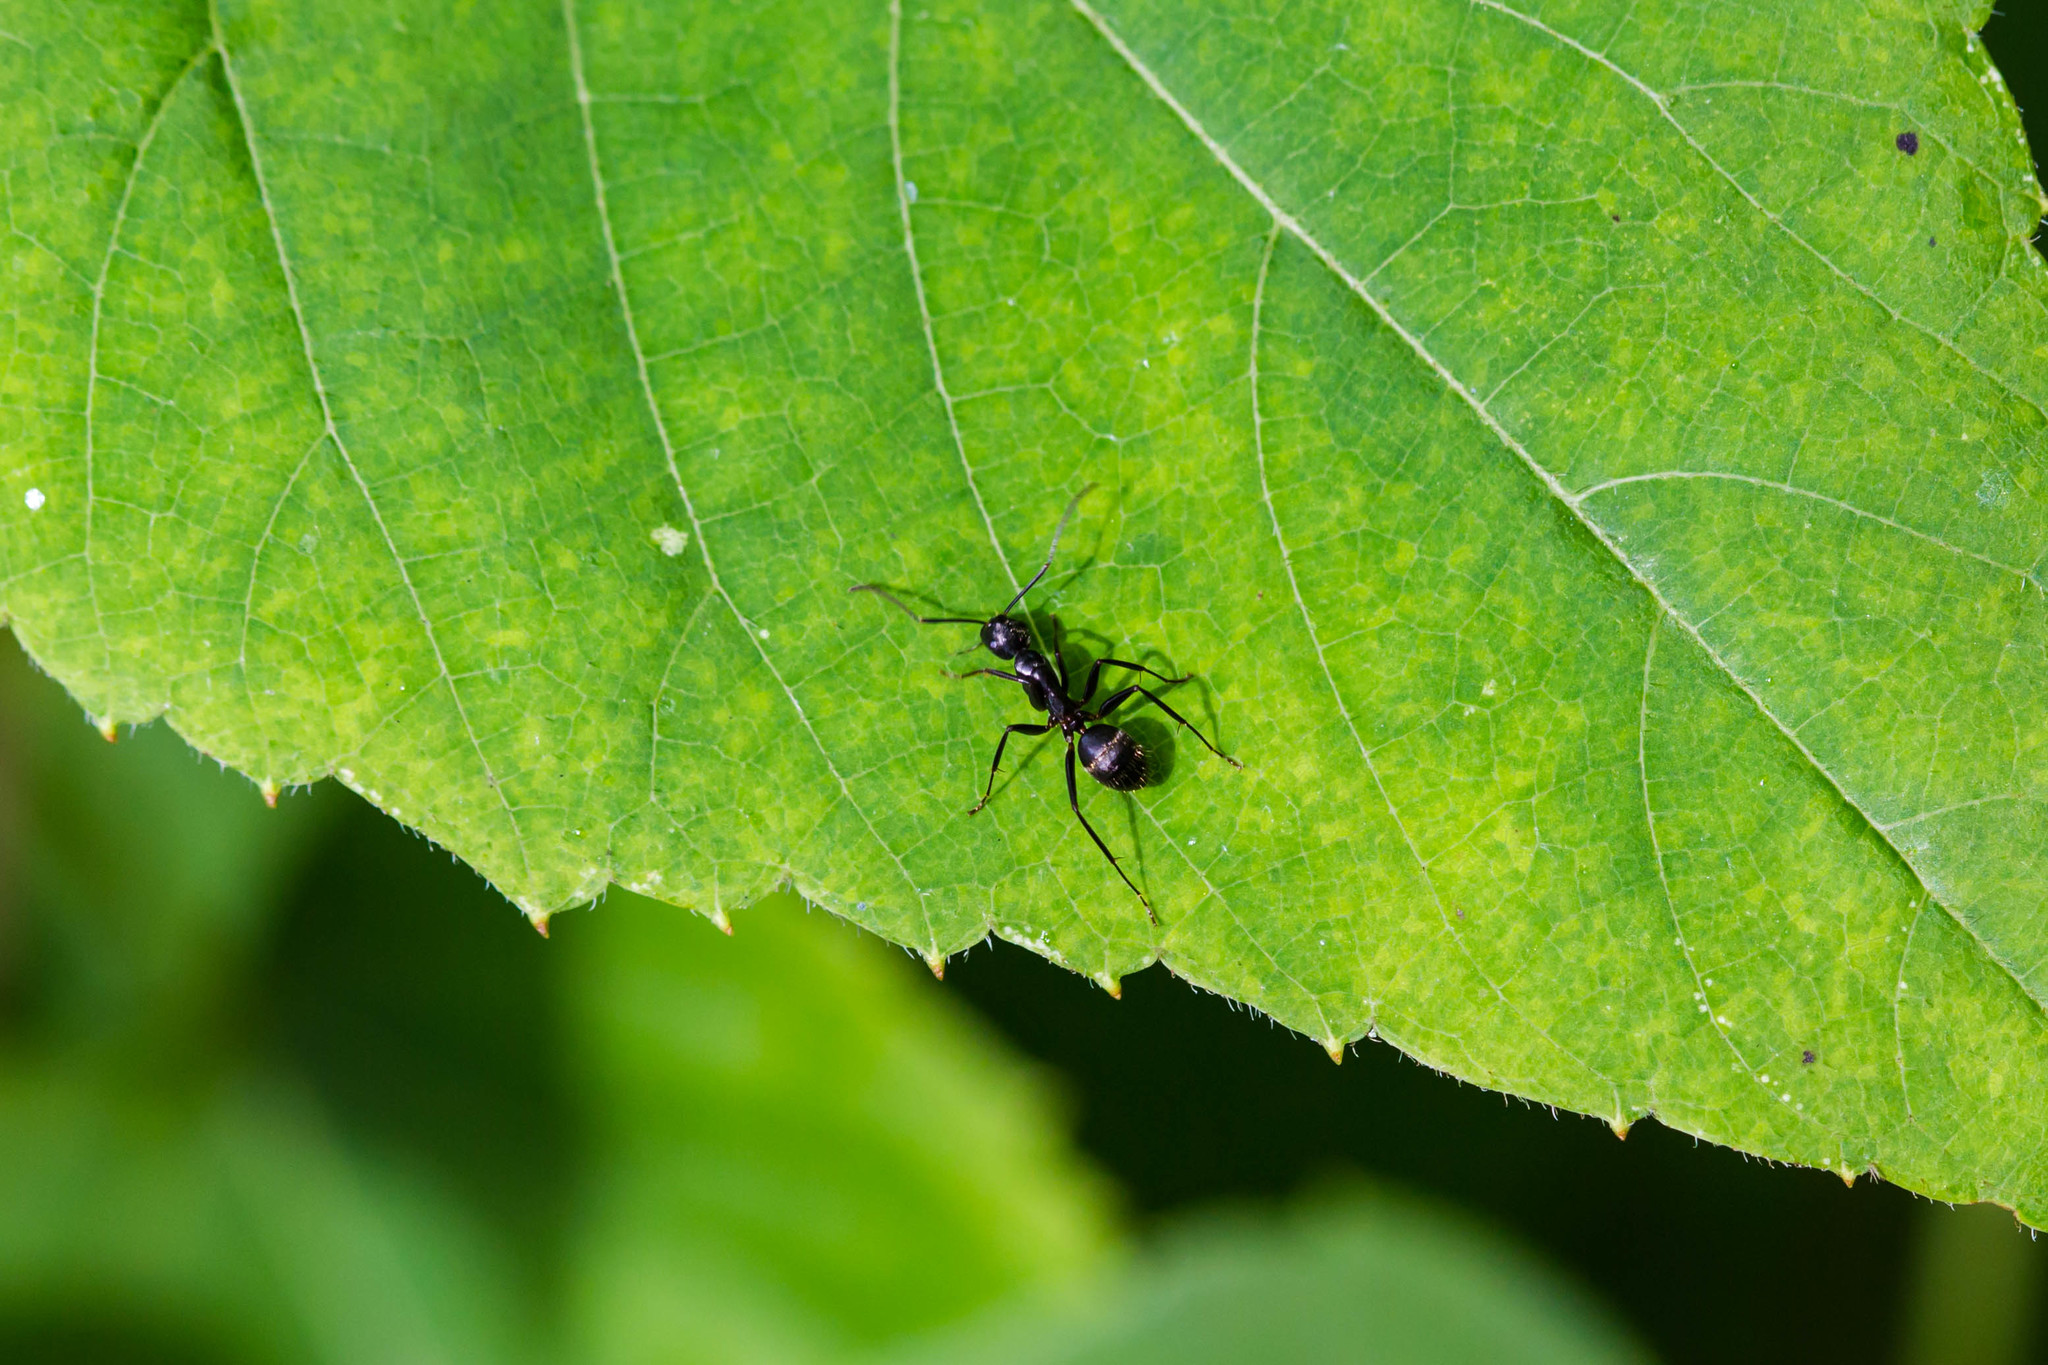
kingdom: Animalia
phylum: Arthropoda
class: Insecta
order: Hymenoptera
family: Formicidae
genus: Camponotus
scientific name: Camponotus pennsylvanicus
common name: Black carpenter ant
